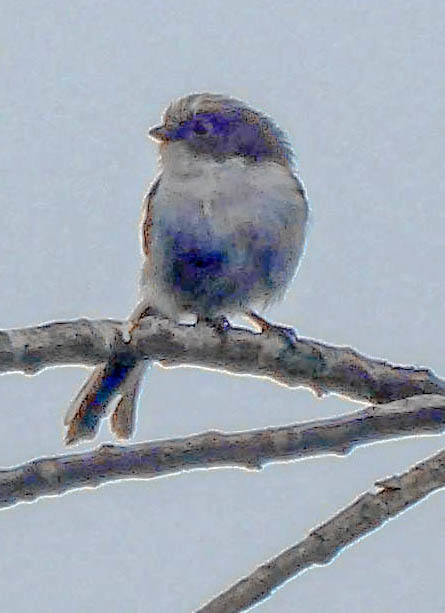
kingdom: Animalia
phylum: Chordata
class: Aves
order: Passeriformes
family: Aegithalidae
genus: Aegithalos
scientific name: Aegithalos caudatus
